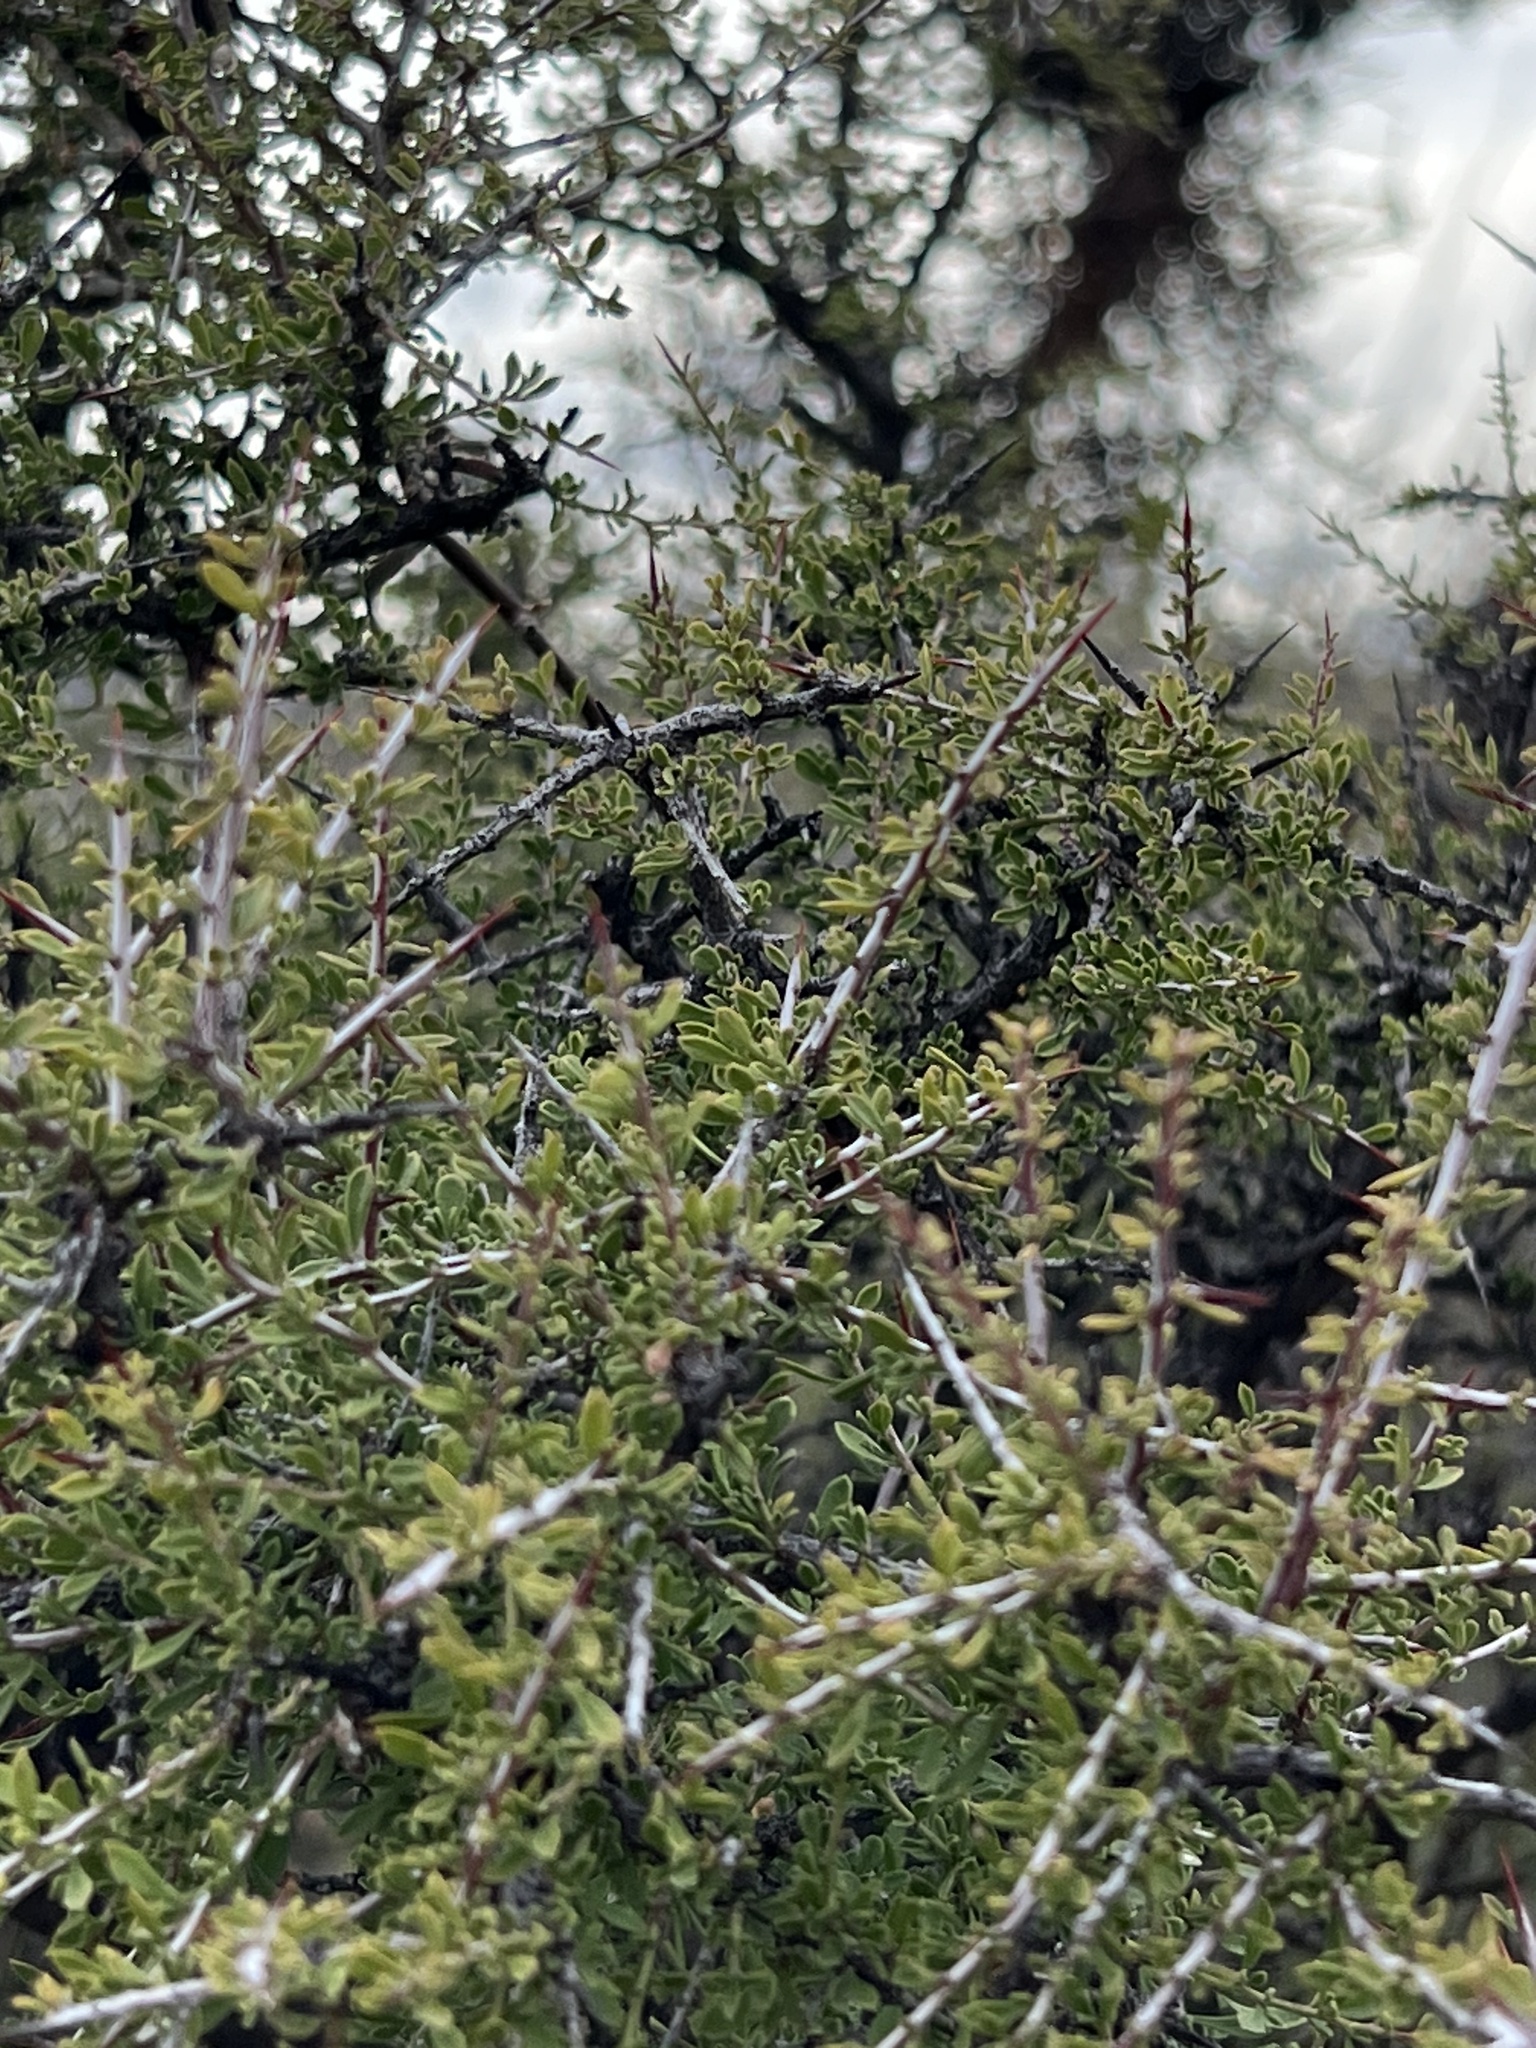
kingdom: Plantae
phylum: Tracheophyta
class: Magnoliopsida
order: Rosales
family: Rhamnaceae
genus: Condalia
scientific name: Condalia warnockii
